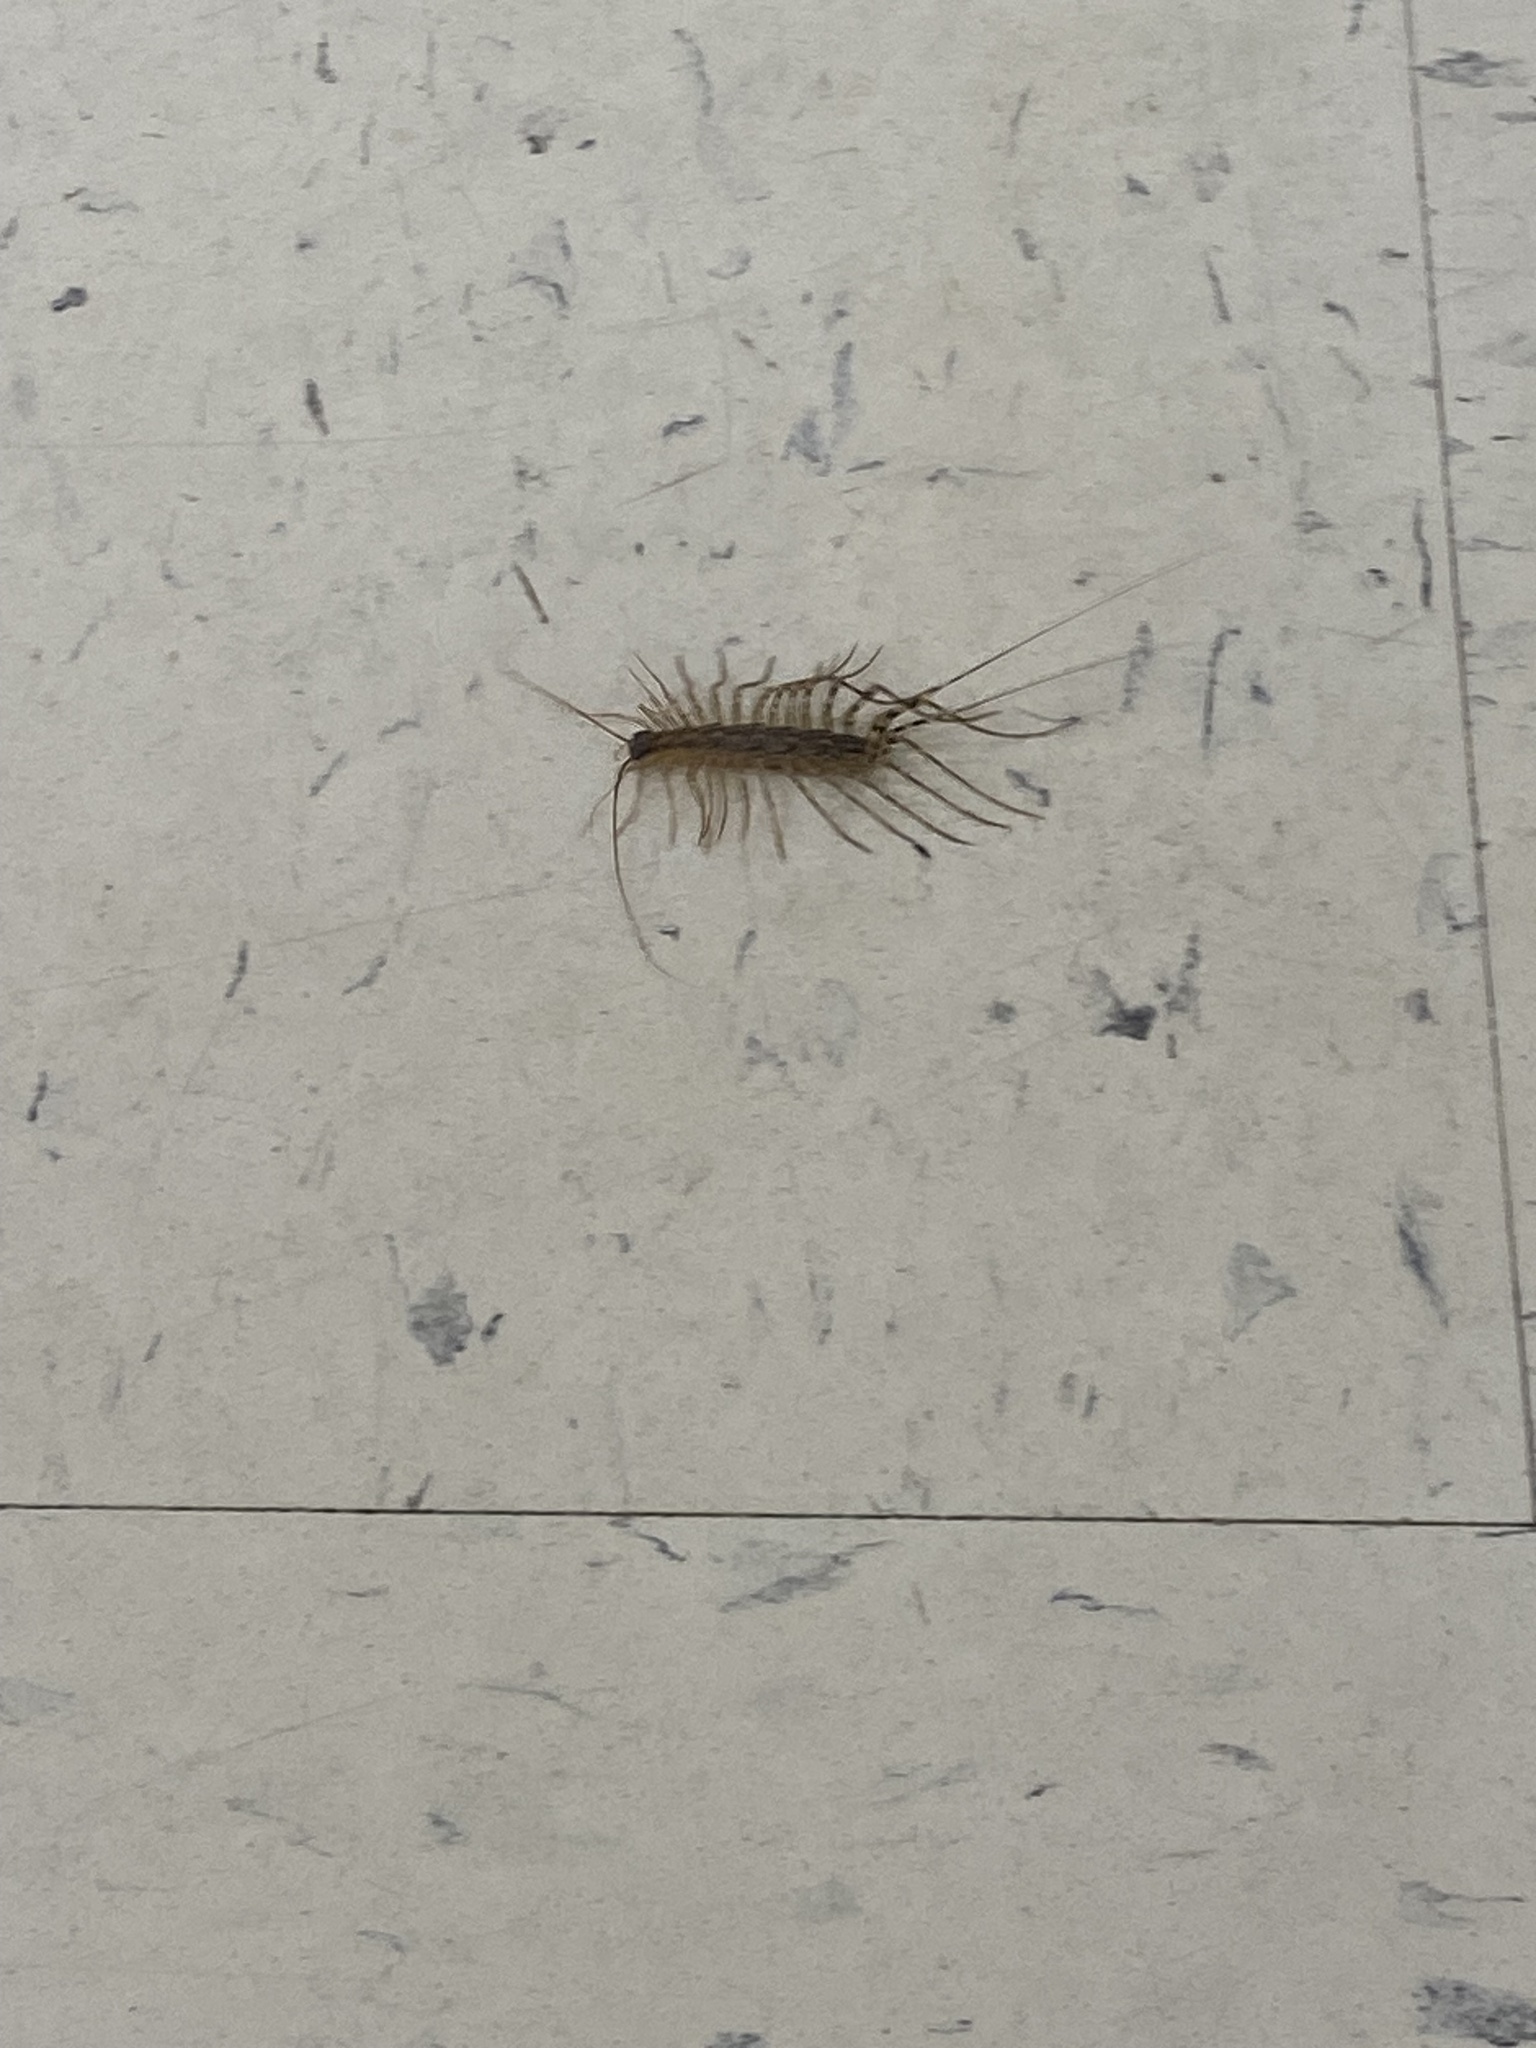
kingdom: Animalia
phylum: Arthropoda
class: Chilopoda
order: Scutigeromorpha
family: Scutigeridae
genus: Scutigera
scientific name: Scutigera coleoptrata
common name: House centipede
